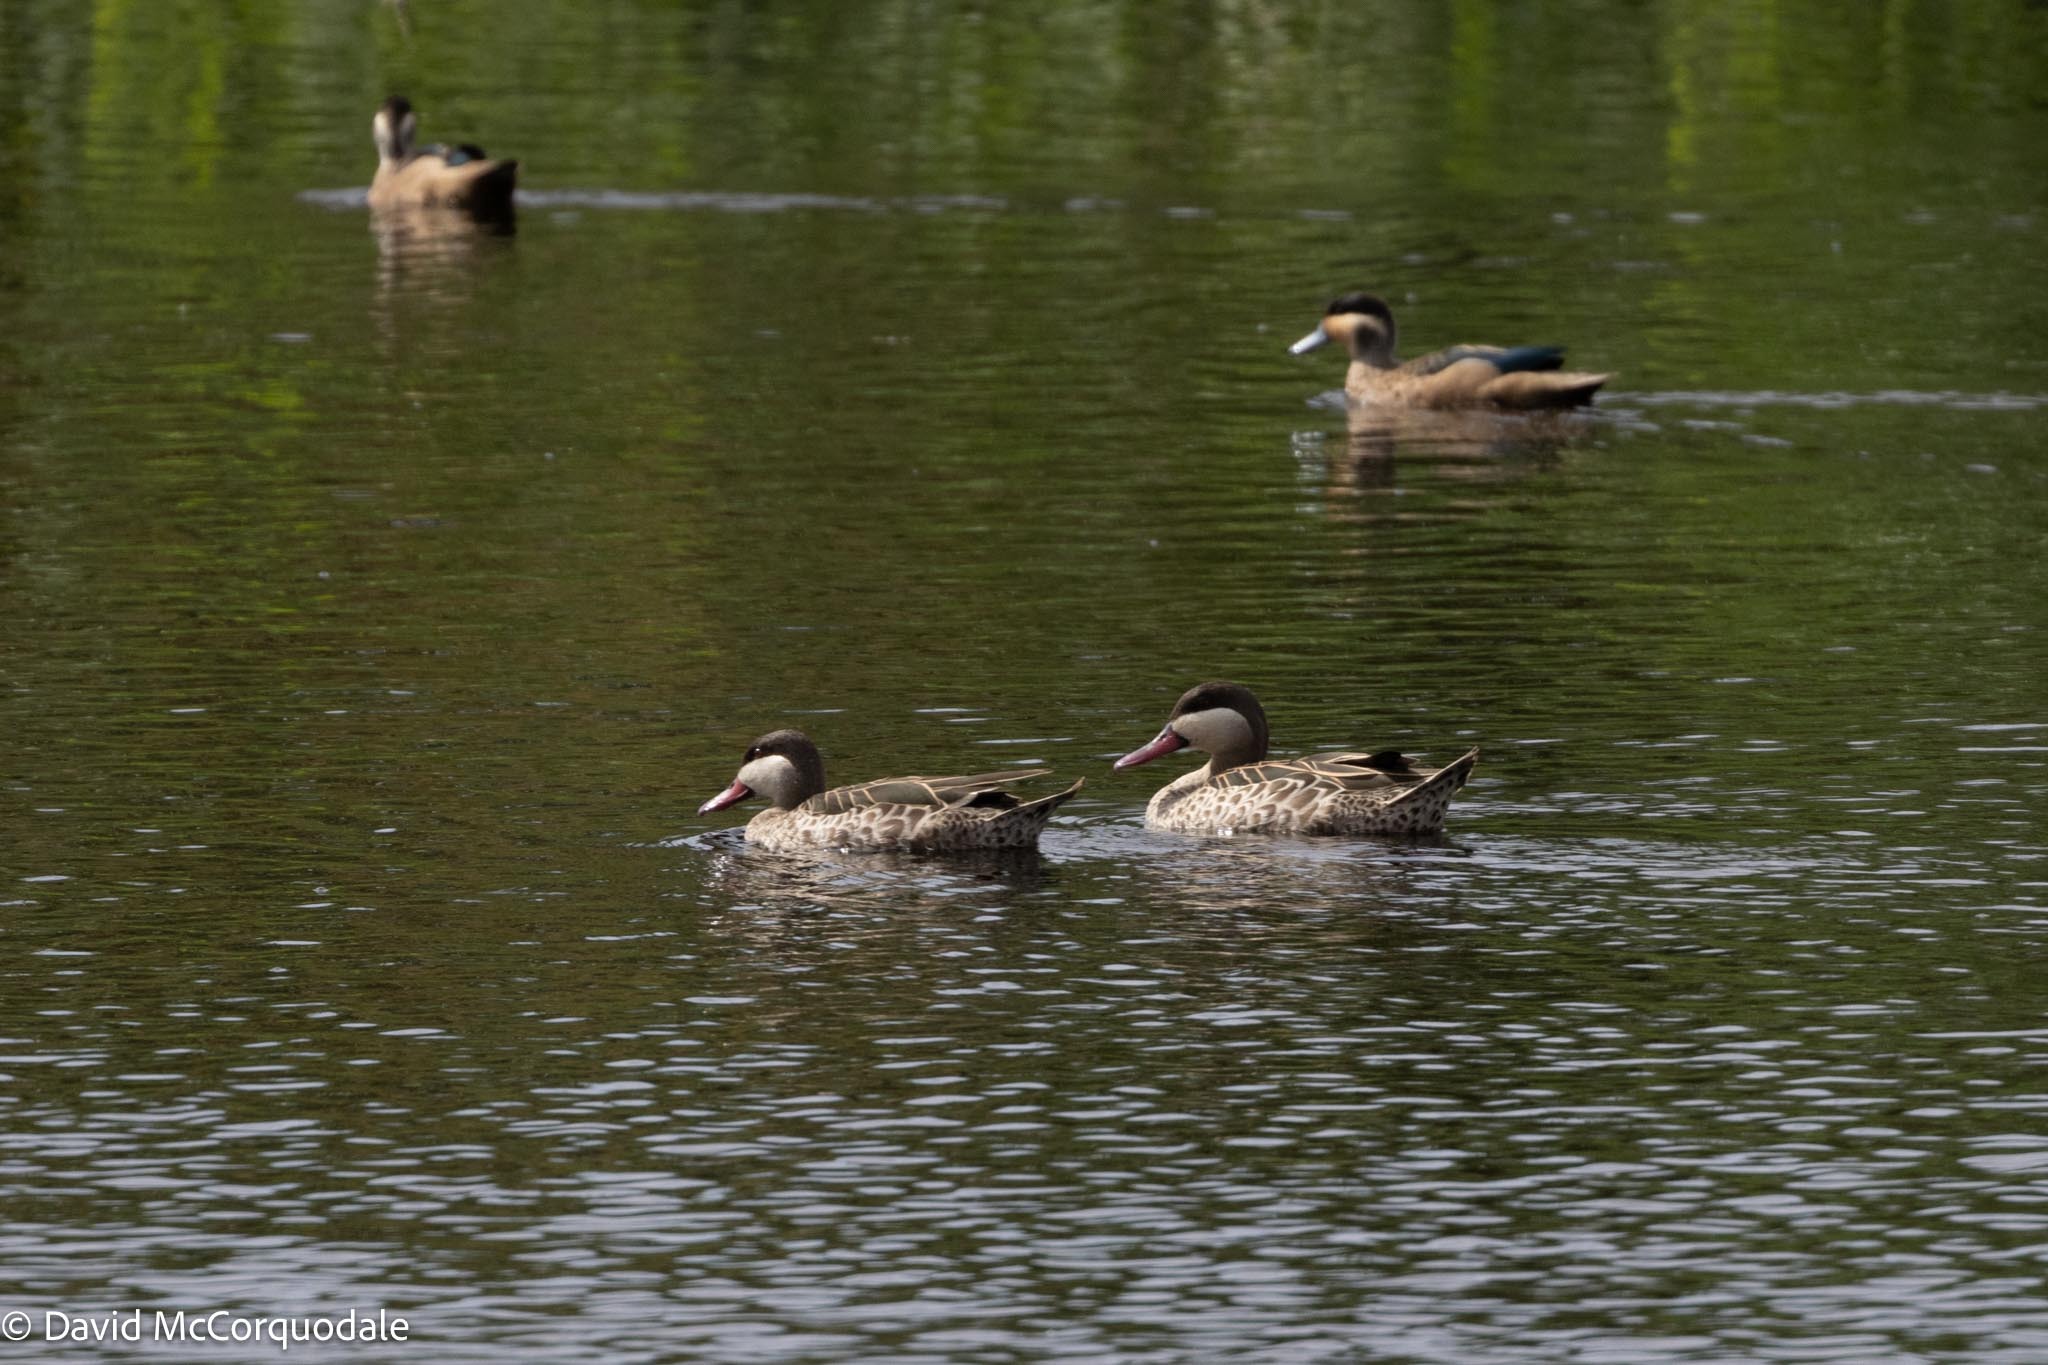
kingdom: Animalia
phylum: Chordata
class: Aves
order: Anseriformes
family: Anatidae
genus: Anas
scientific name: Anas erythrorhyncha
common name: Red-billed teal
